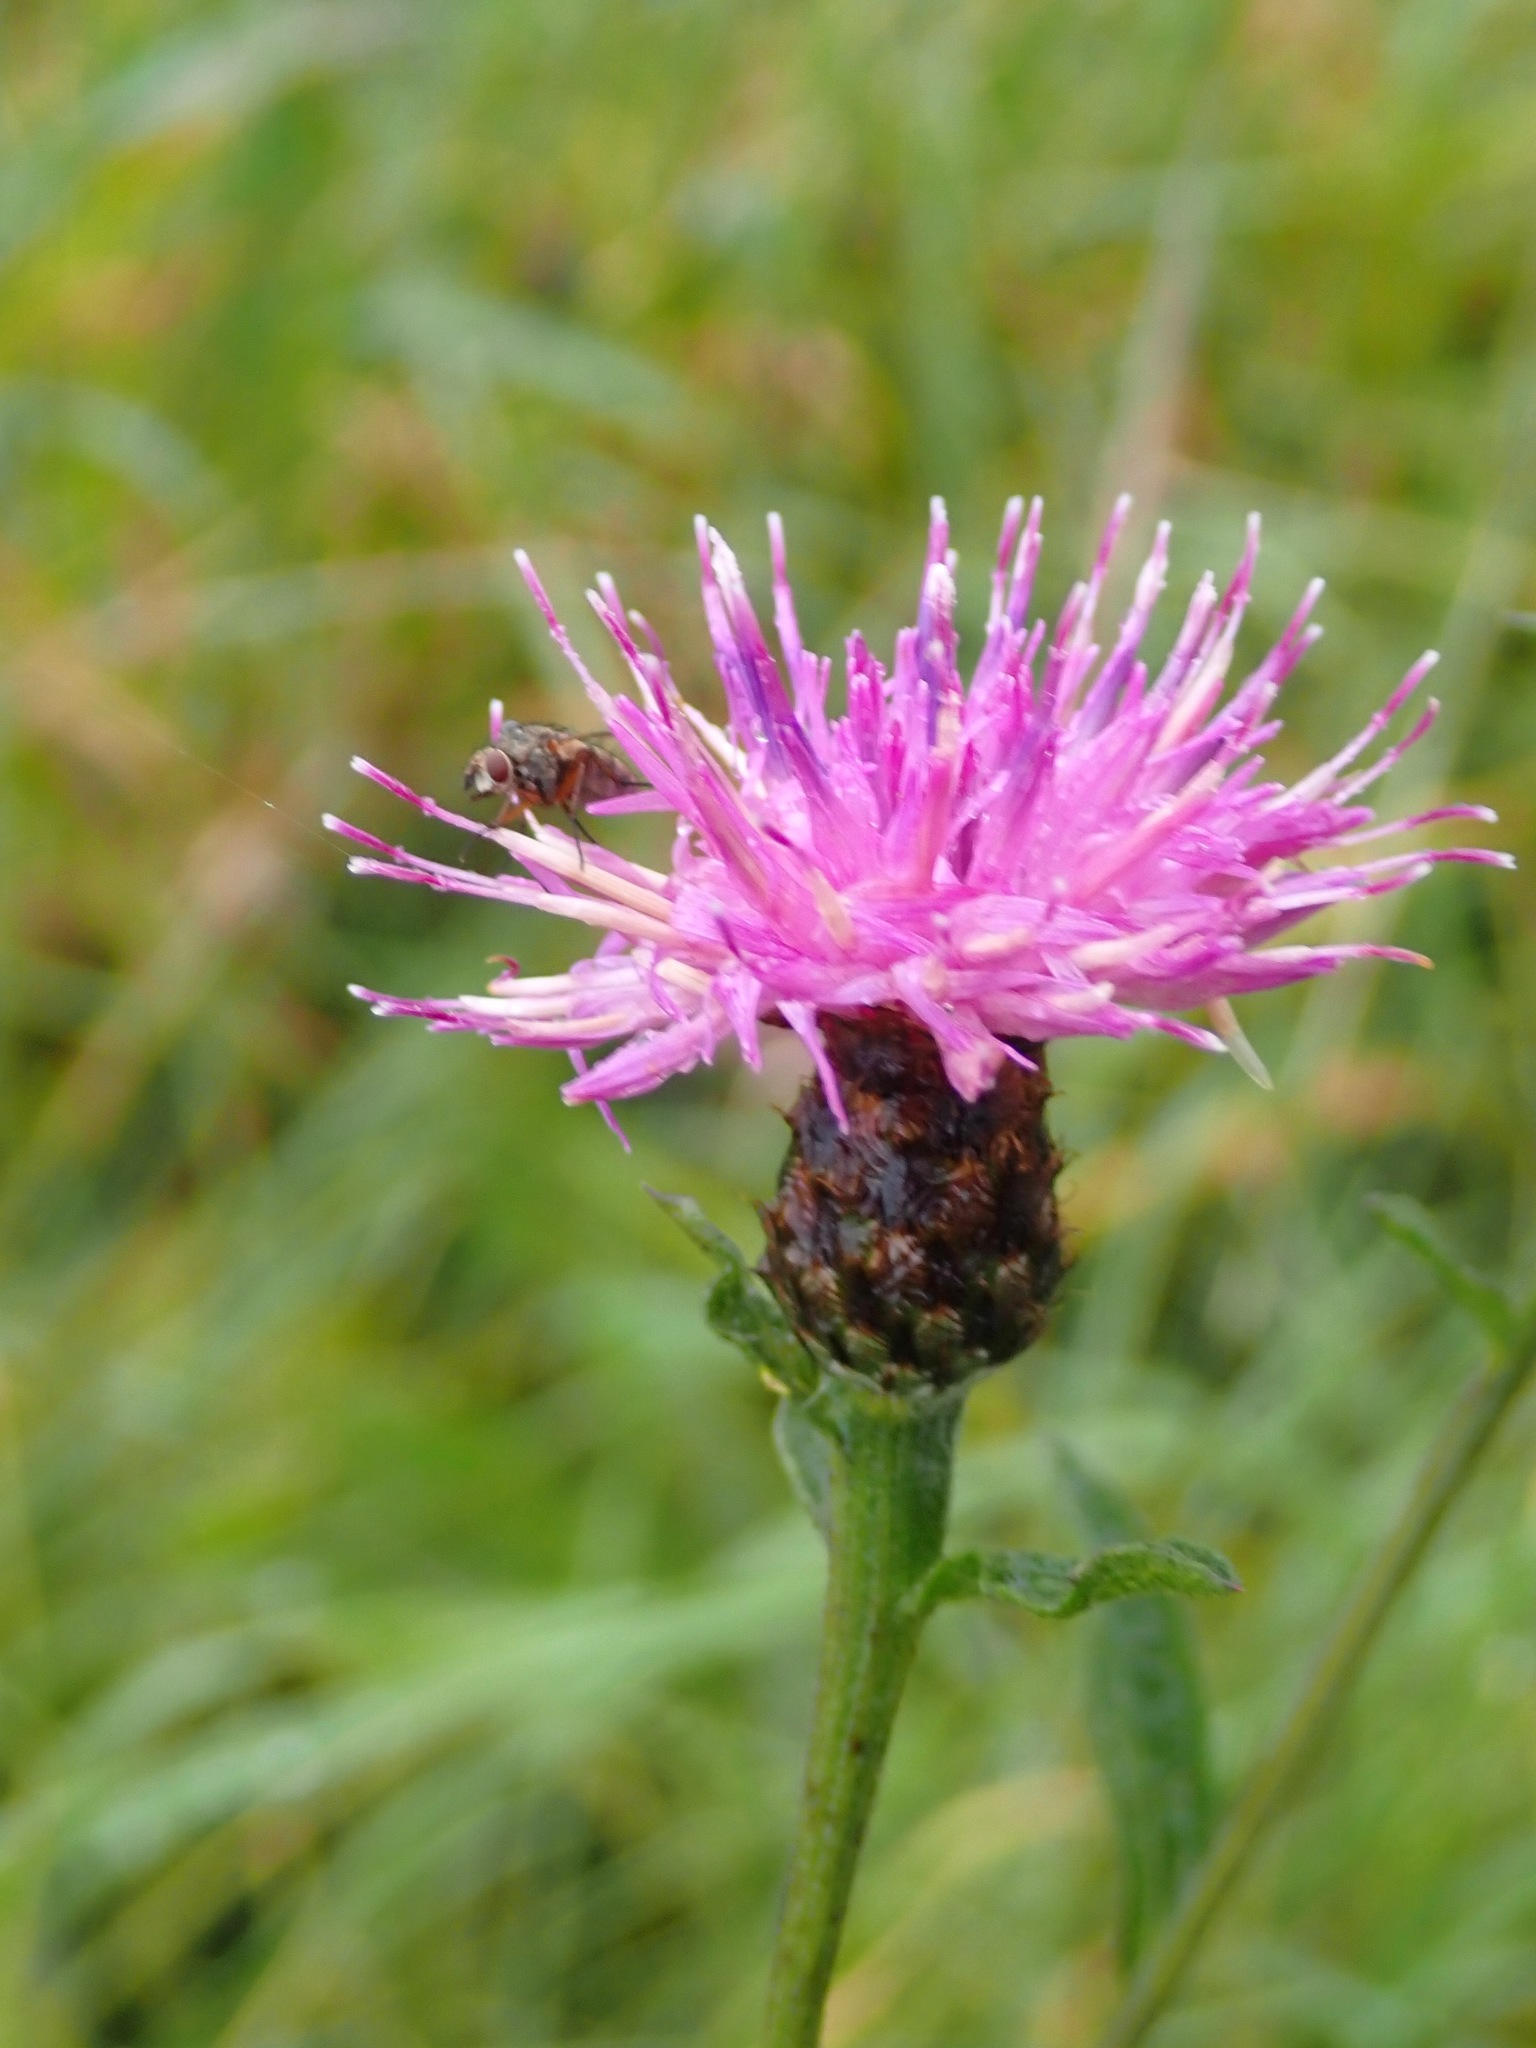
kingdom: Plantae
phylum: Tracheophyta
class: Magnoliopsida
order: Asterales
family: Asteraceae
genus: Centaurea
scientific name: Centaurea nigra
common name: Lesser knapweed
